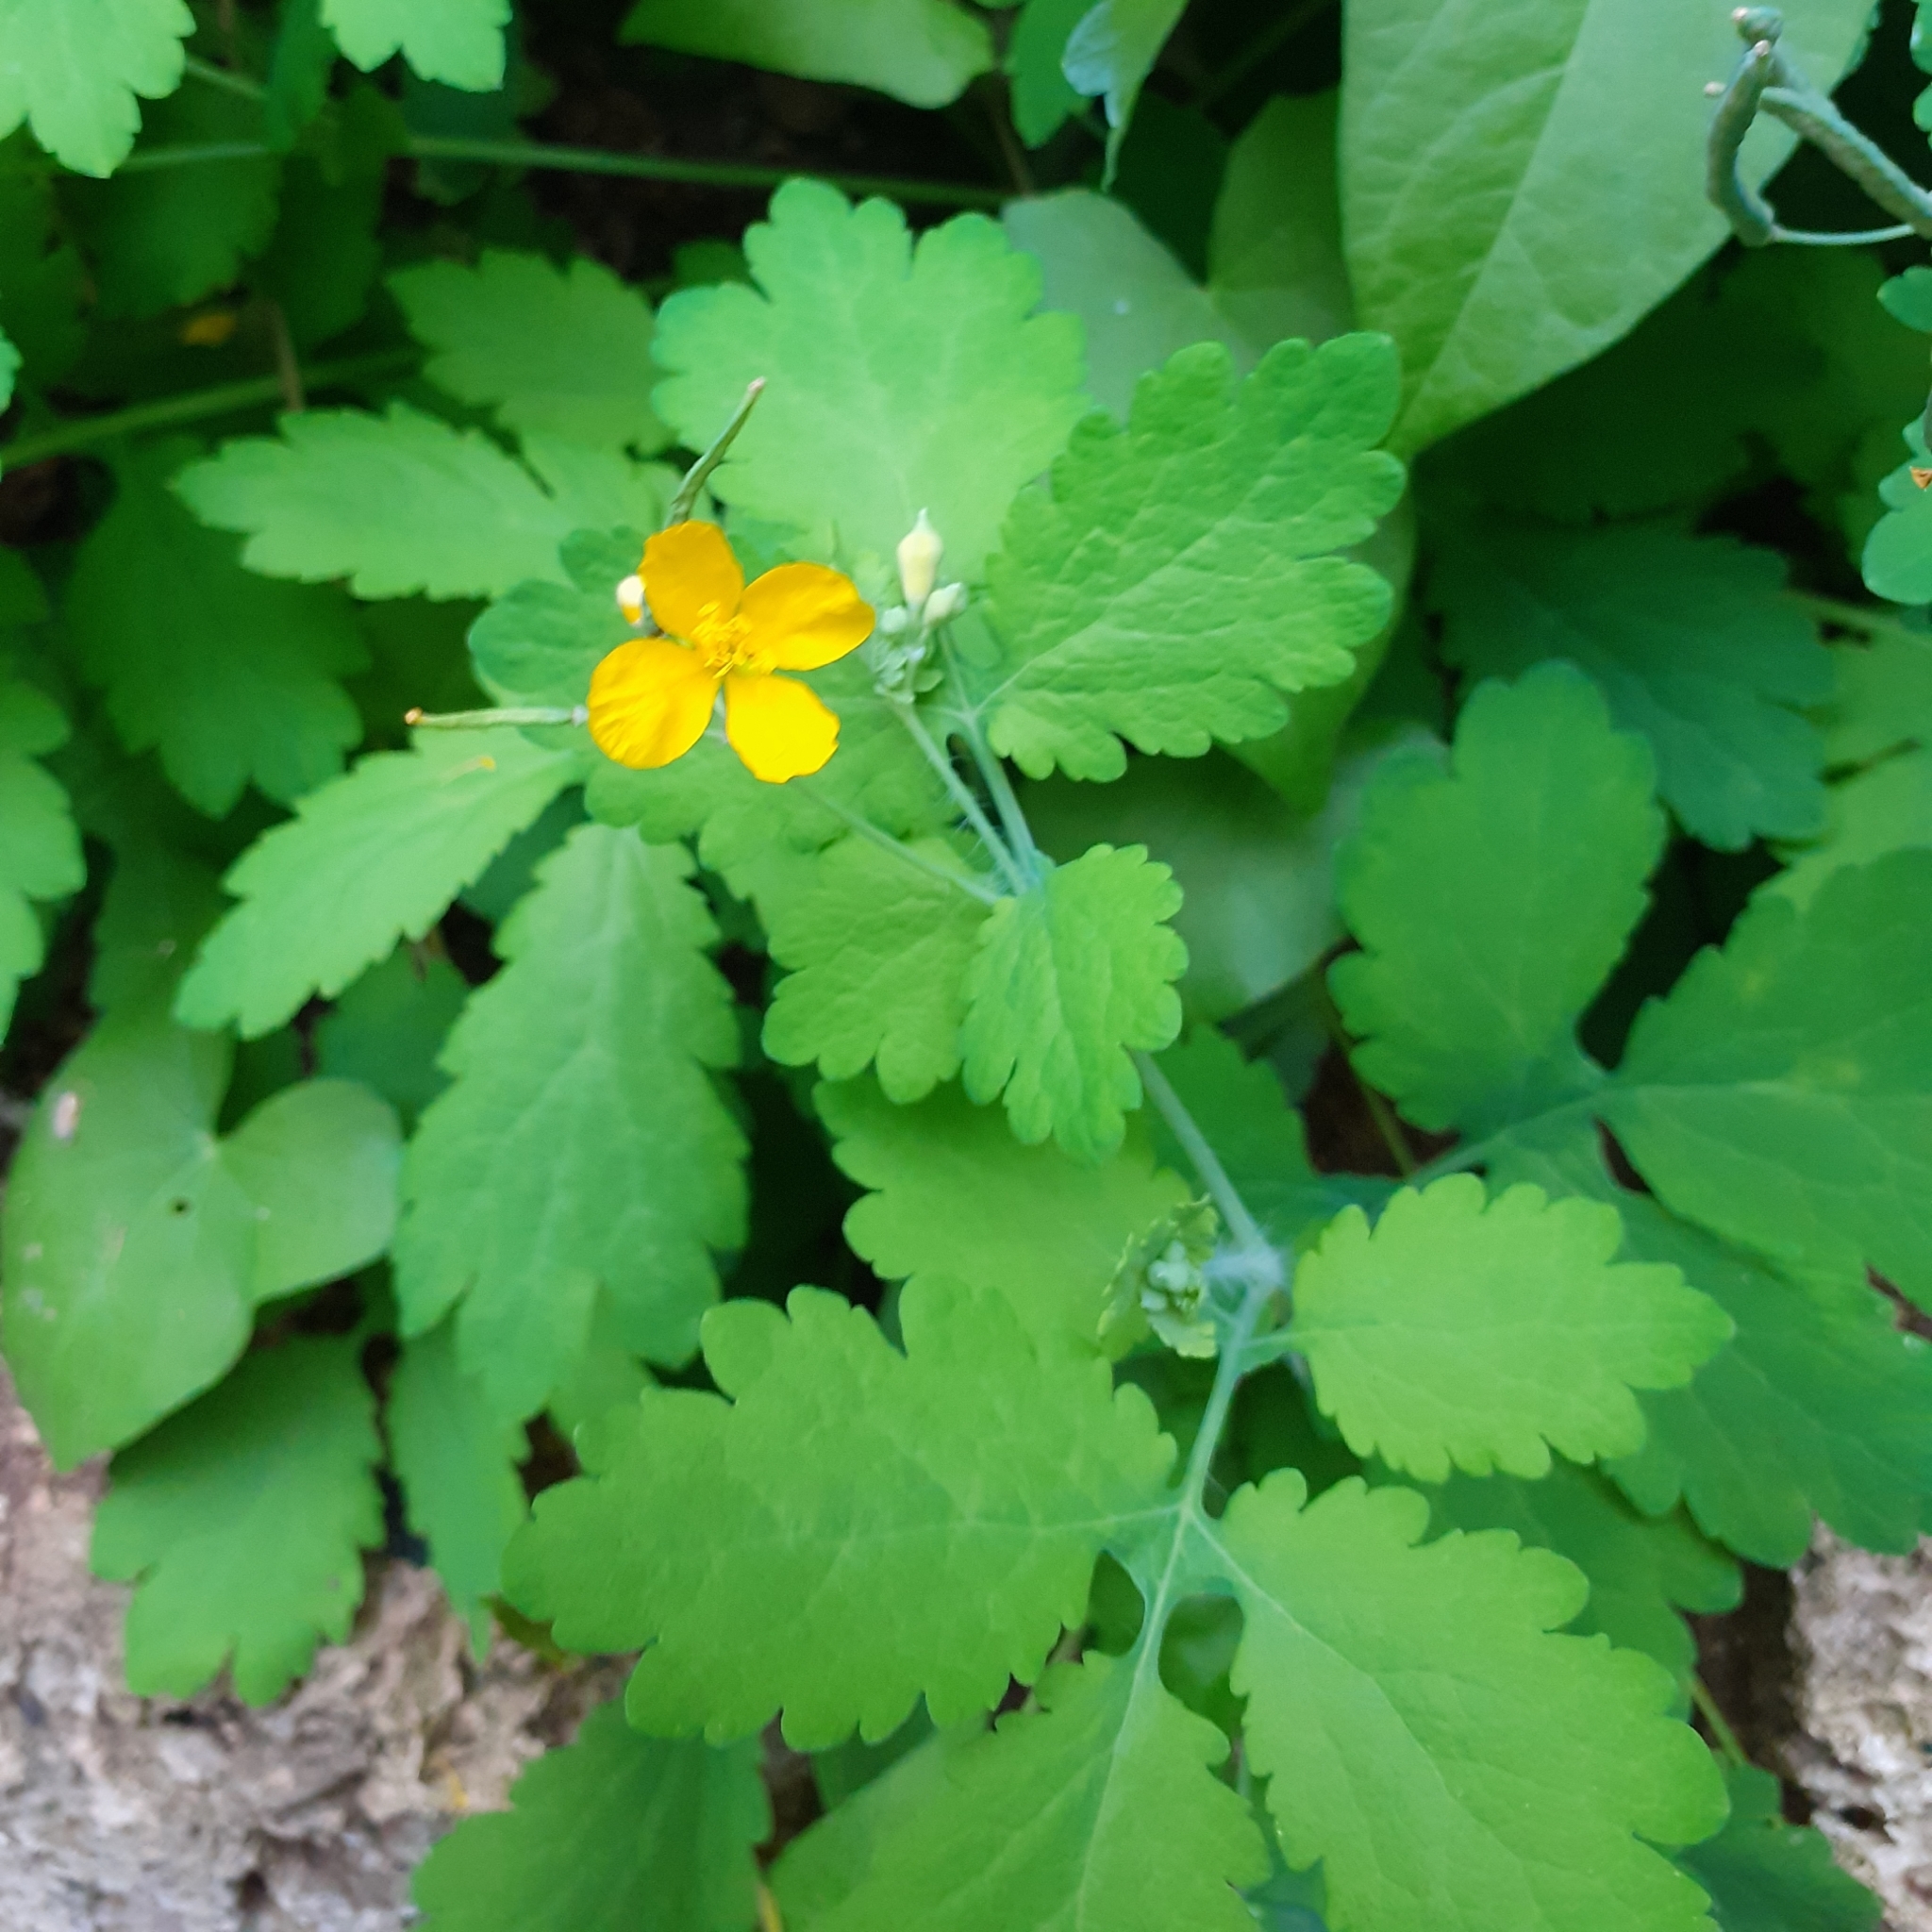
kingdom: Plantae
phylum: Tracheophyta
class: Magnoliopsida
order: Ranunculales
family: Papaveraceae
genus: Chelidonium
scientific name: Chelidonium majus
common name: Greater celandine
